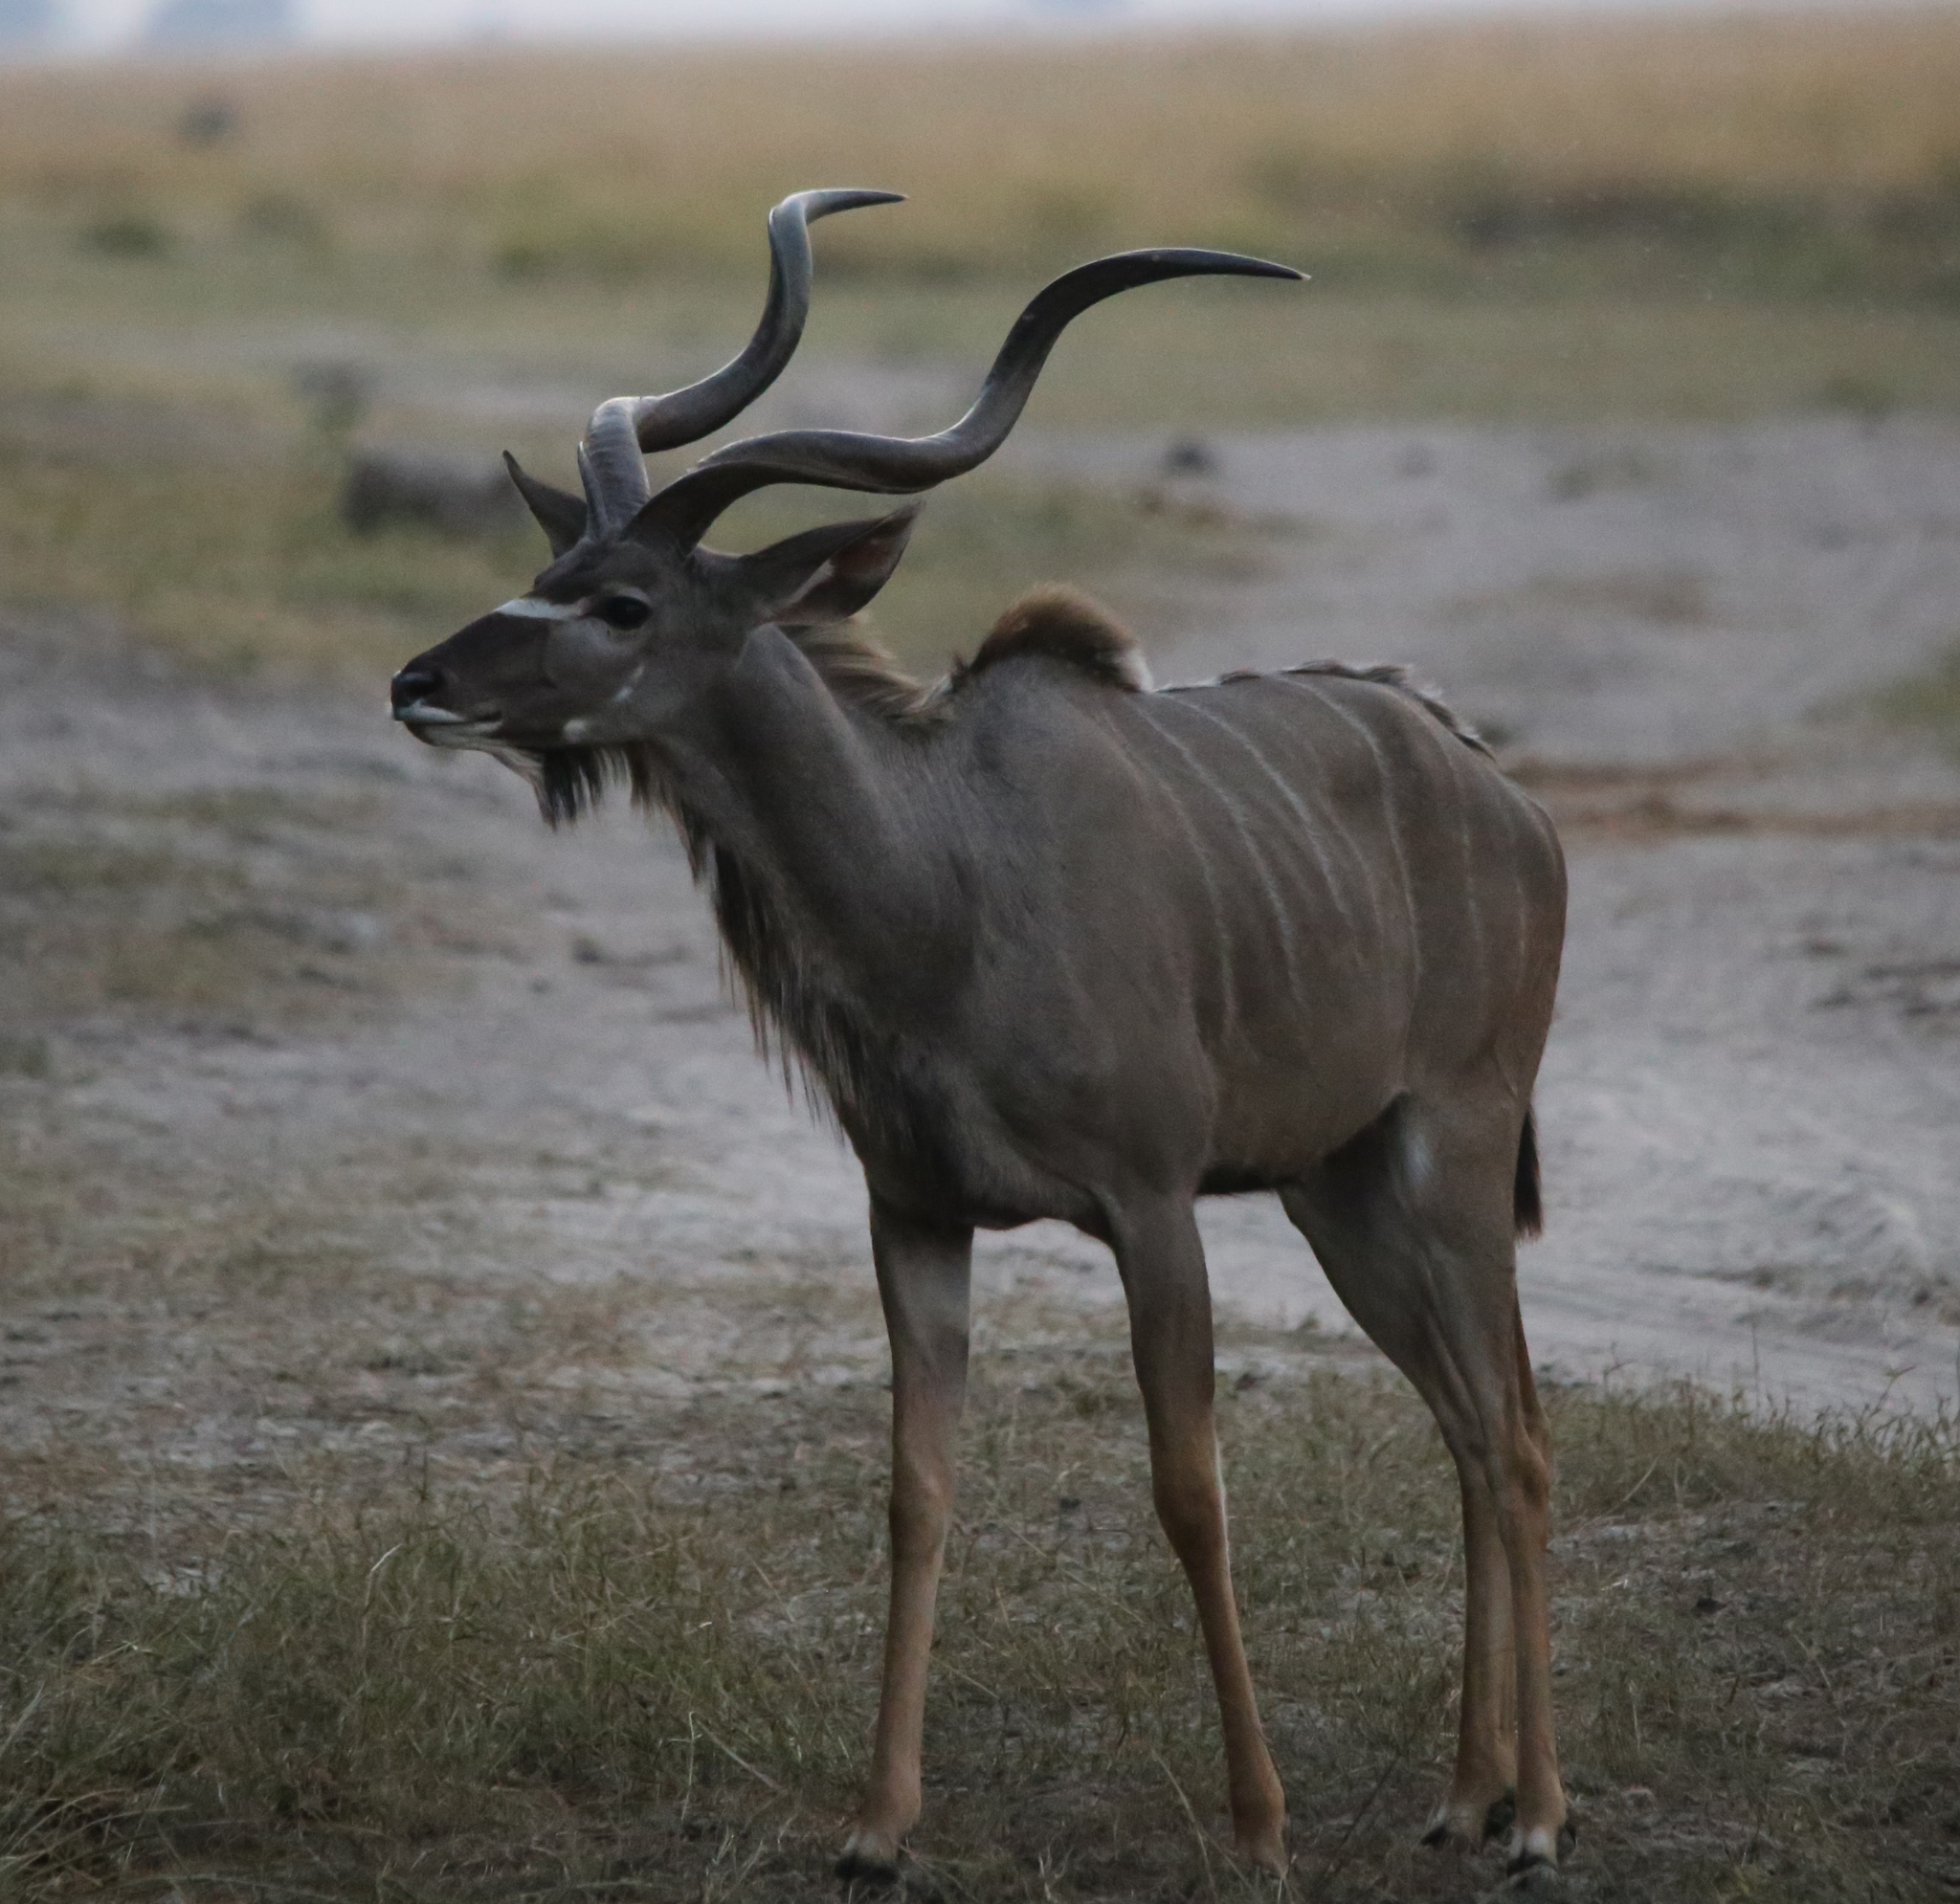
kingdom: Animalia
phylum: Chordata
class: Mammalia
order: Artiodactyla
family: Bovidae
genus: Tragelaphus
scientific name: Tragelaphus strepsiceros
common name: Greater kudu
